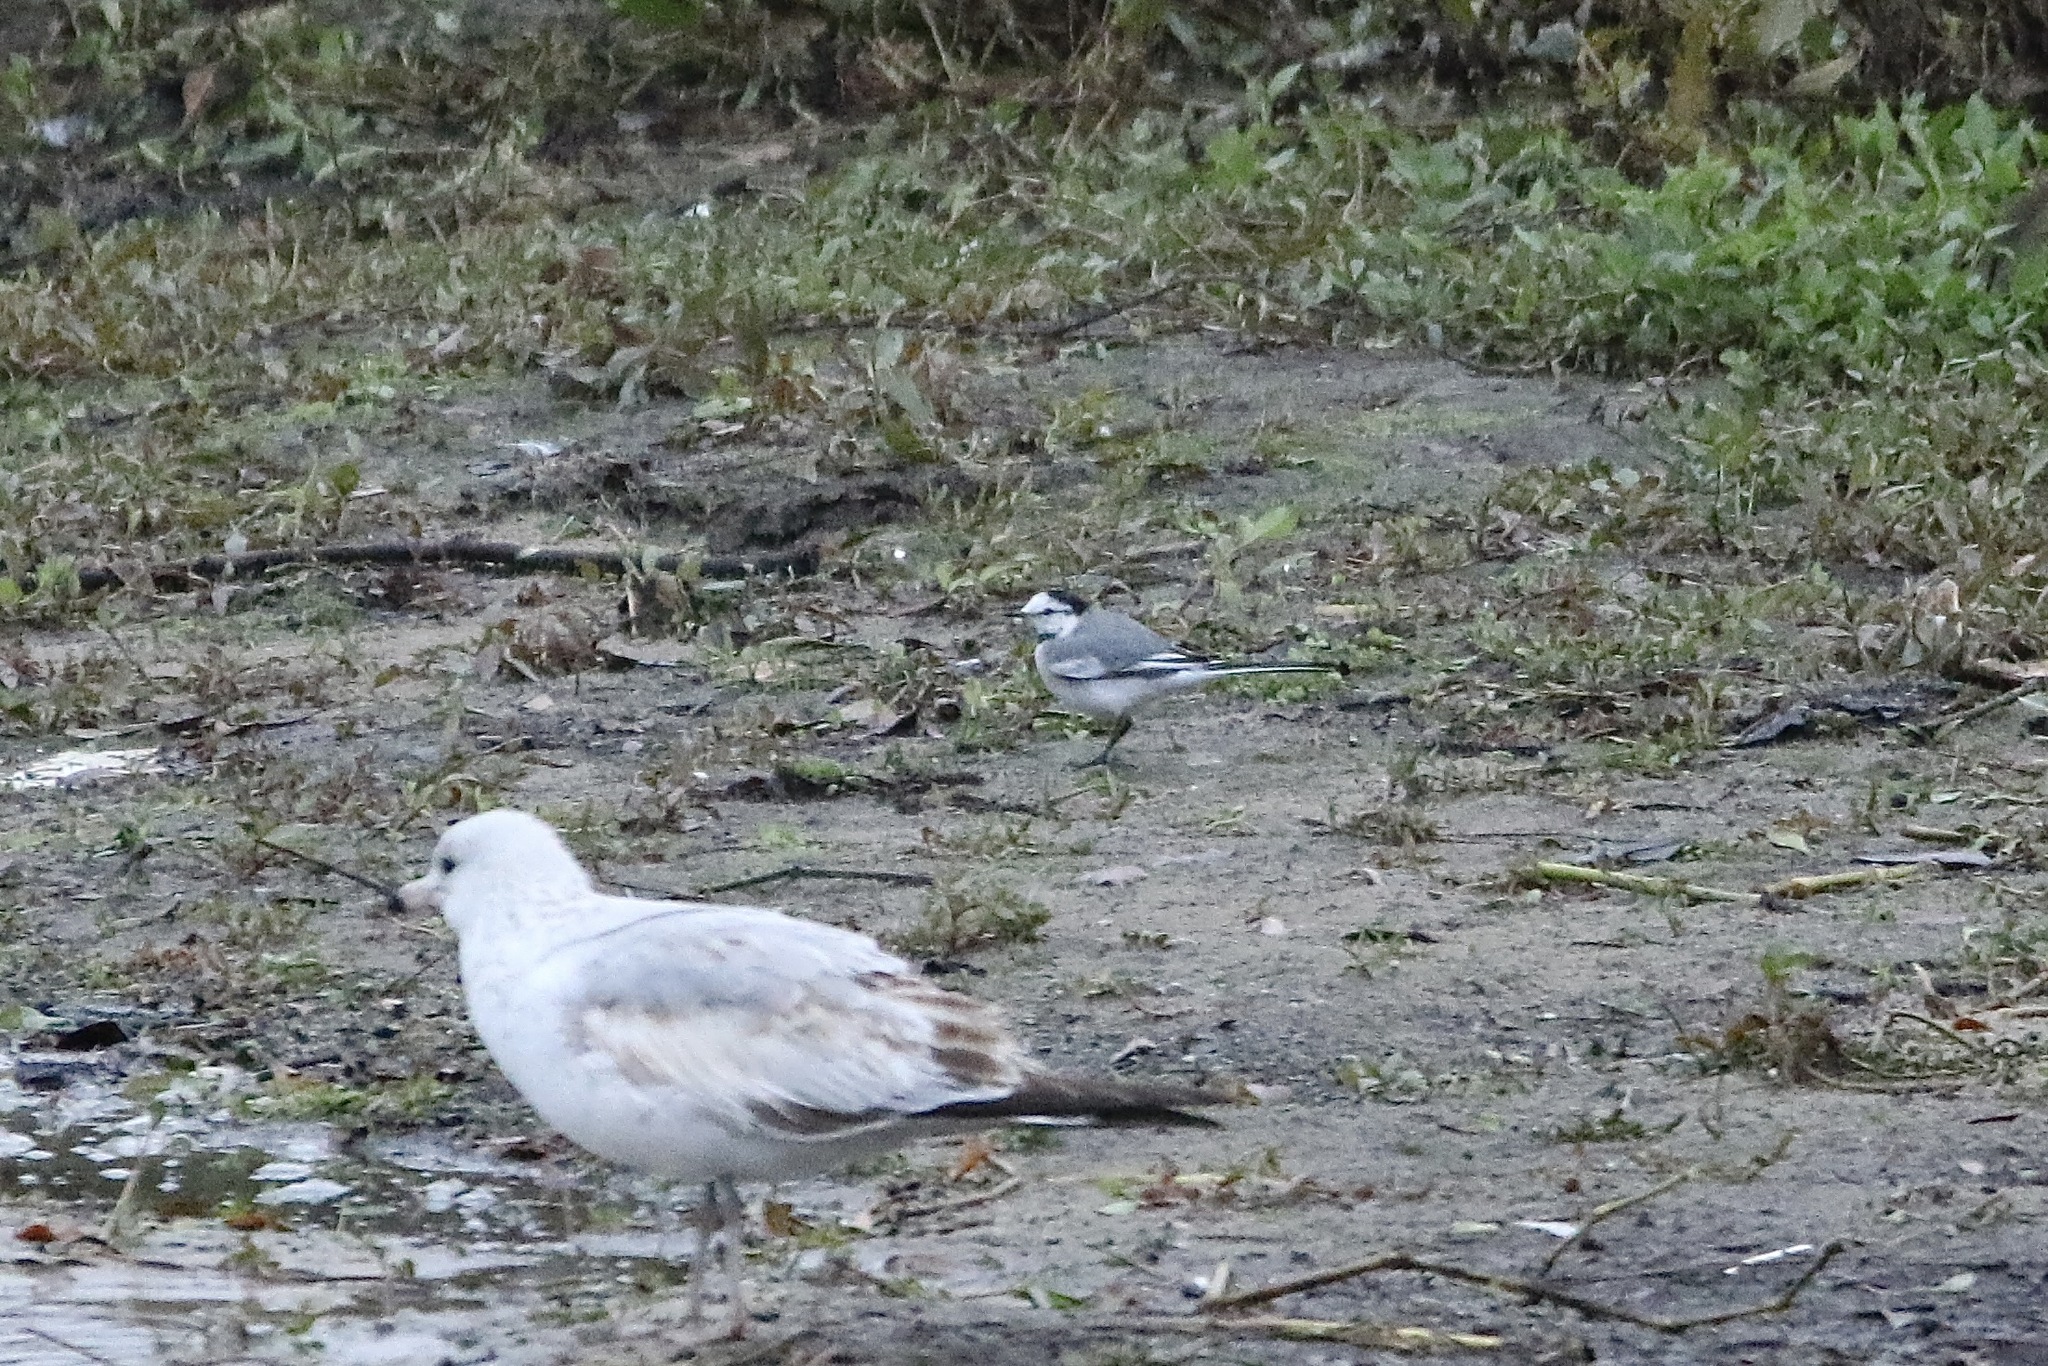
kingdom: Animalia
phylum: Chordata
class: Aves
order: Passeriformes
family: Motacillidae
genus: Motacilla
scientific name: Motacilla alba
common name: White wagtail
